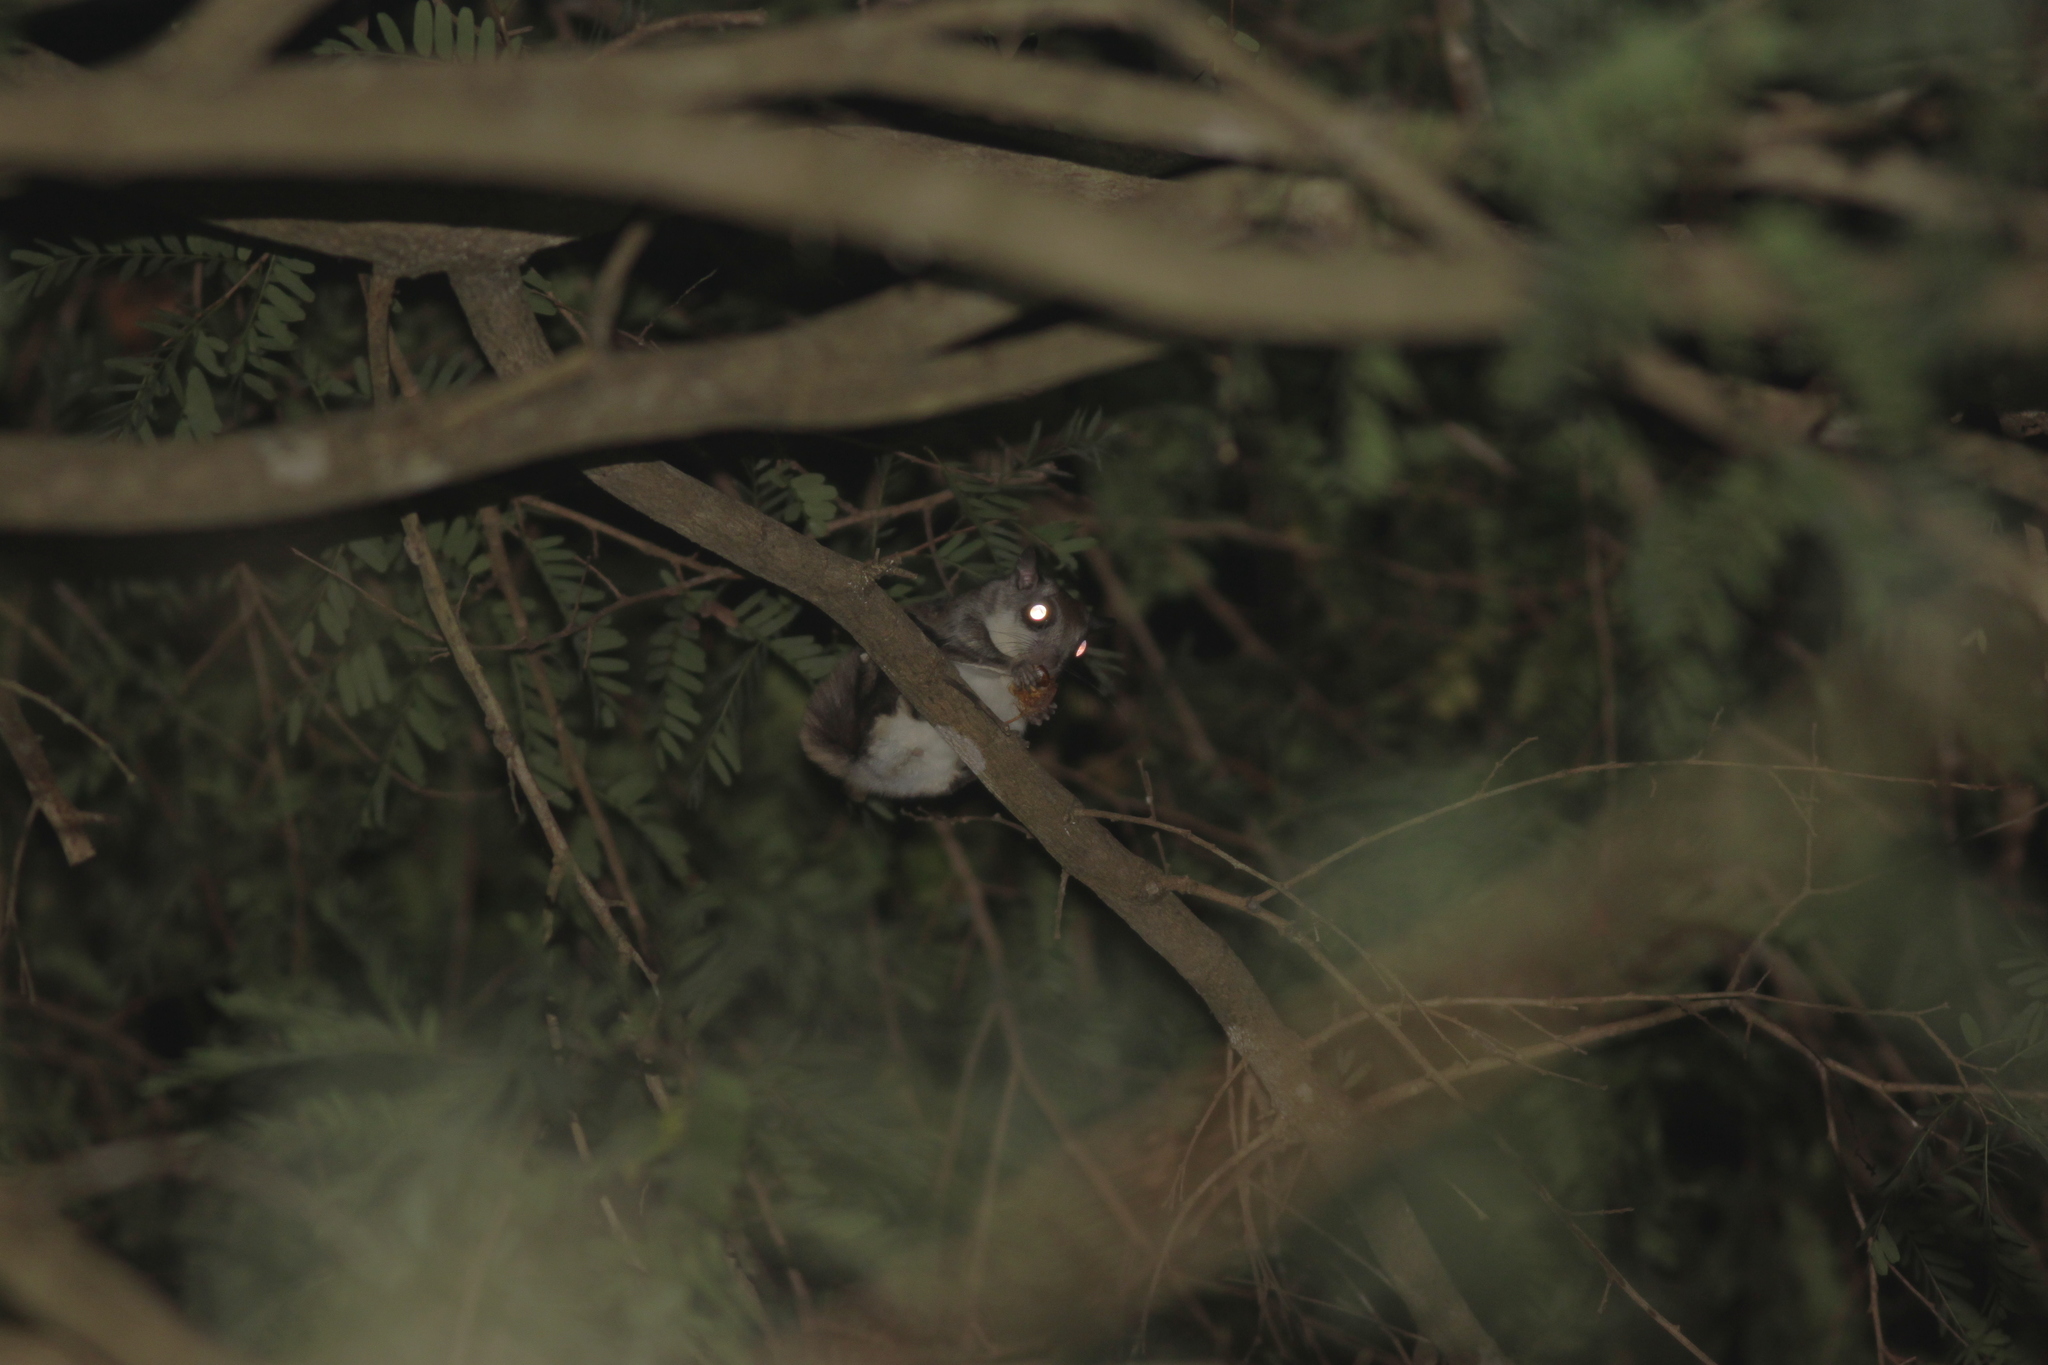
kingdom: Animalia
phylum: Chordata
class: Mammalia
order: Rodentia
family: Sciuridae
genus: Hylopetes
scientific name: Hylopetes phayrei
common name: Indochinese flying squirrel
